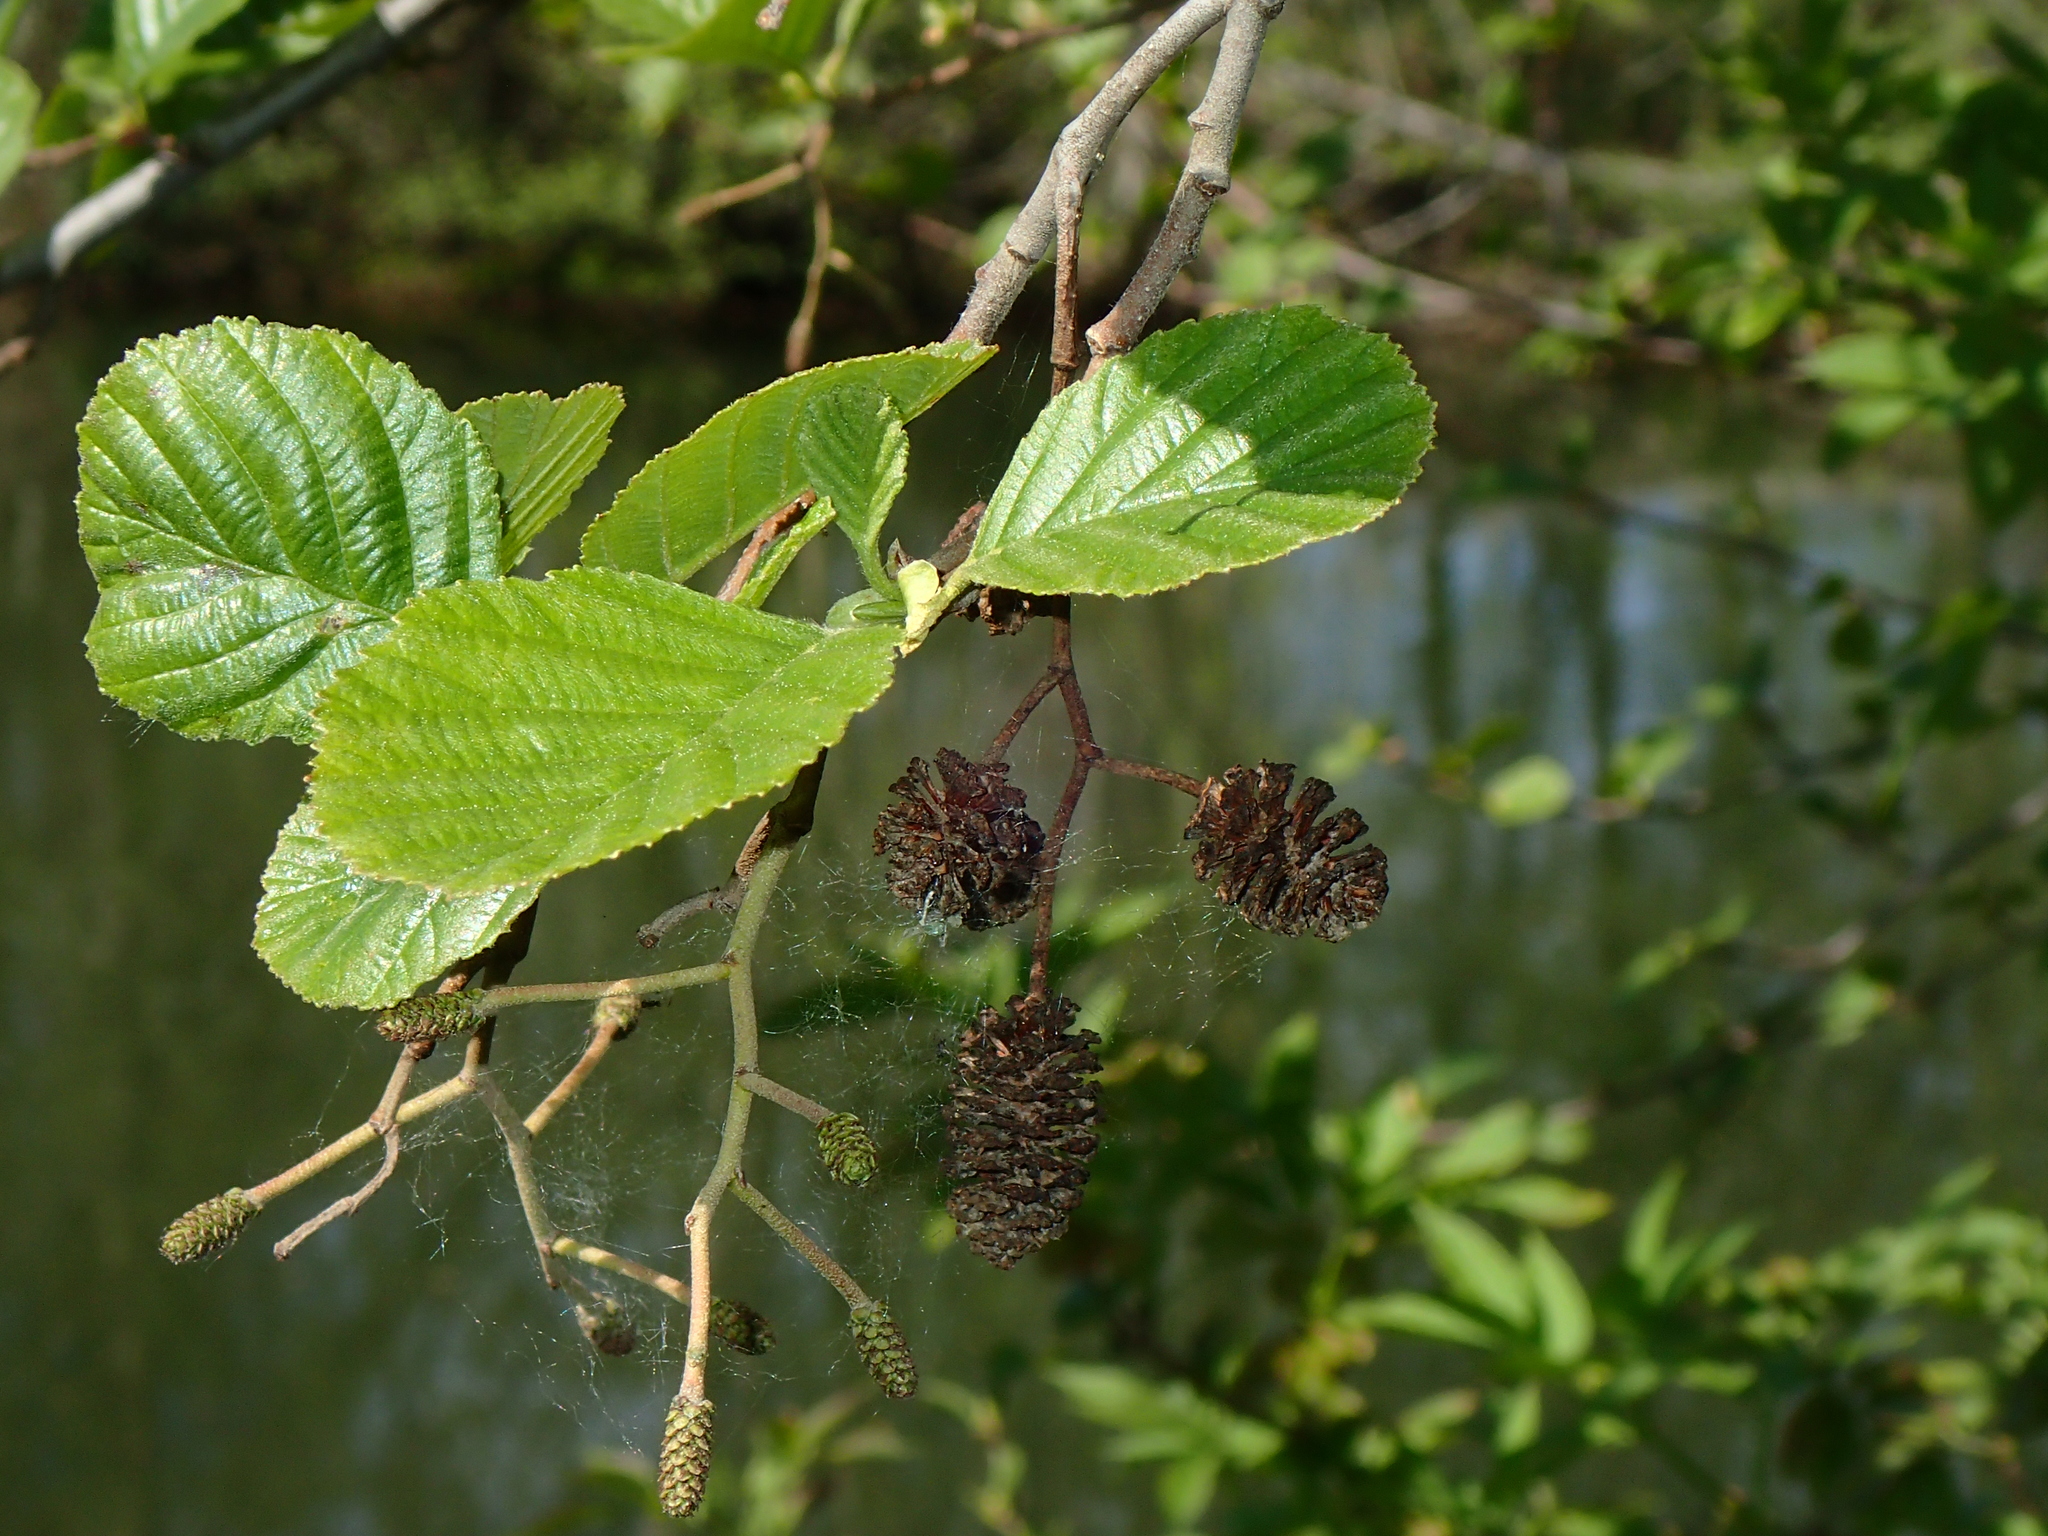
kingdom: Plantae
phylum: Tracheophyta
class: Magnoliopsida
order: Fagales
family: Betulaceae
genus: Alnus
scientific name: Alnus glutinosa
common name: Black alder
